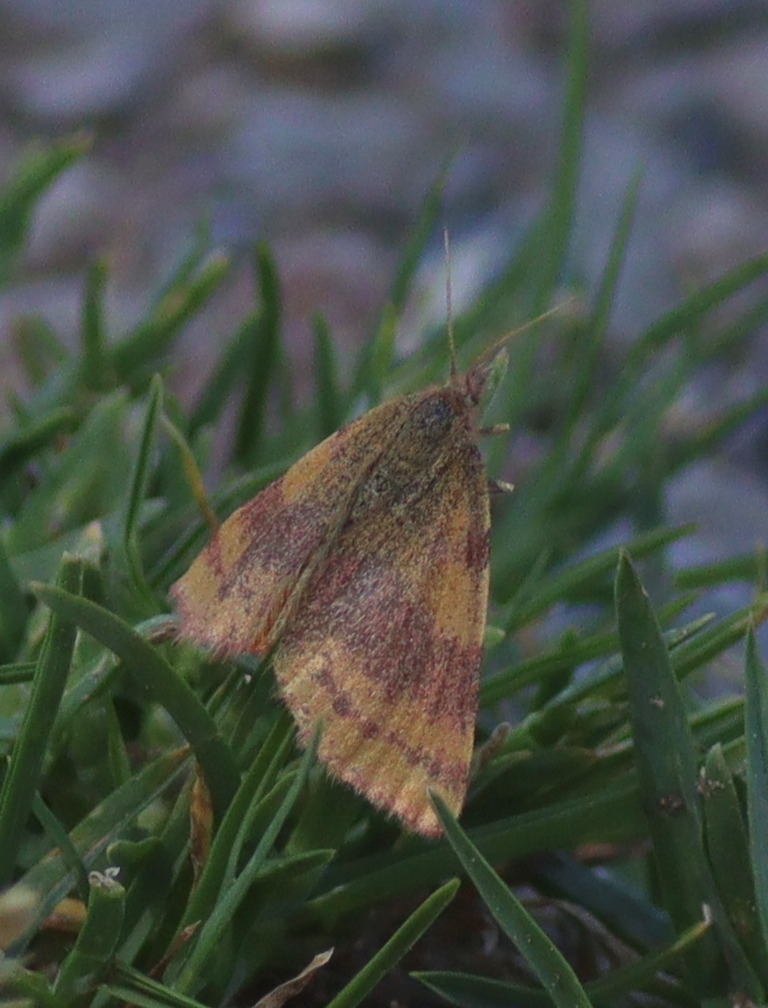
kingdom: Animalia
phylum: Arthropoda
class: Insecta
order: Lepidoptera
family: Geometridae
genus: Lythria
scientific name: Lythria cruentaria
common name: Purple-barred yellow
